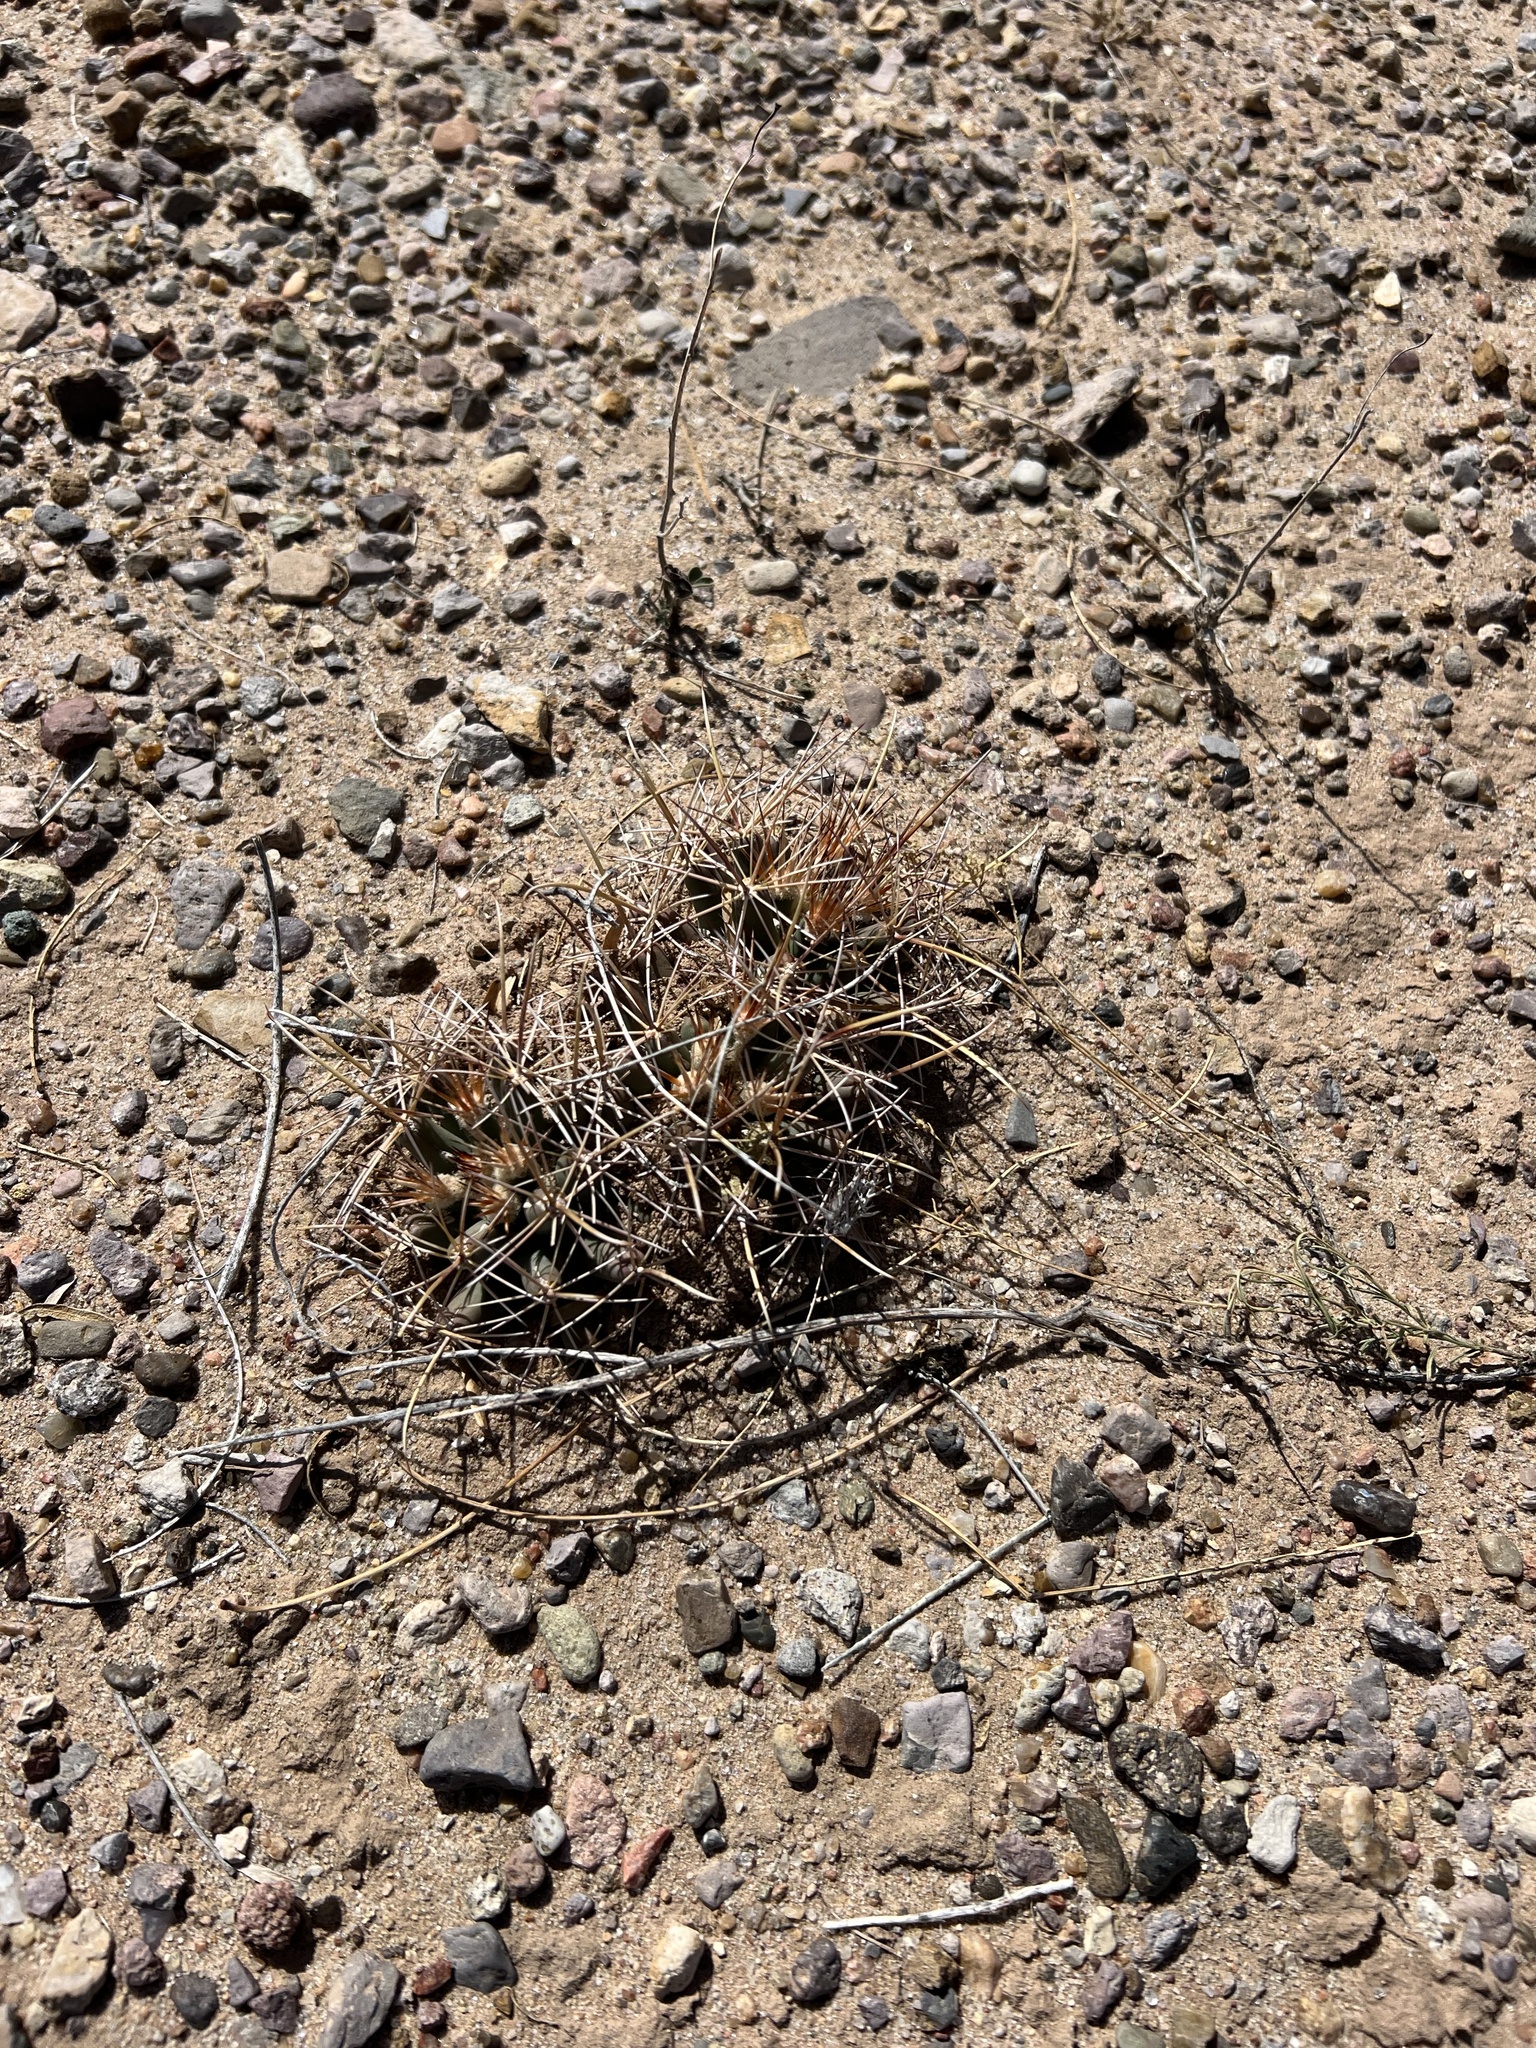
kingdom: Plantae
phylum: Tracheophyta
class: Magnoliopsida
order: Caryophyllales
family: Cactaceae
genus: Coryphantha
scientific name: Coryphantha robustispina
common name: Pima pineapple cactus
